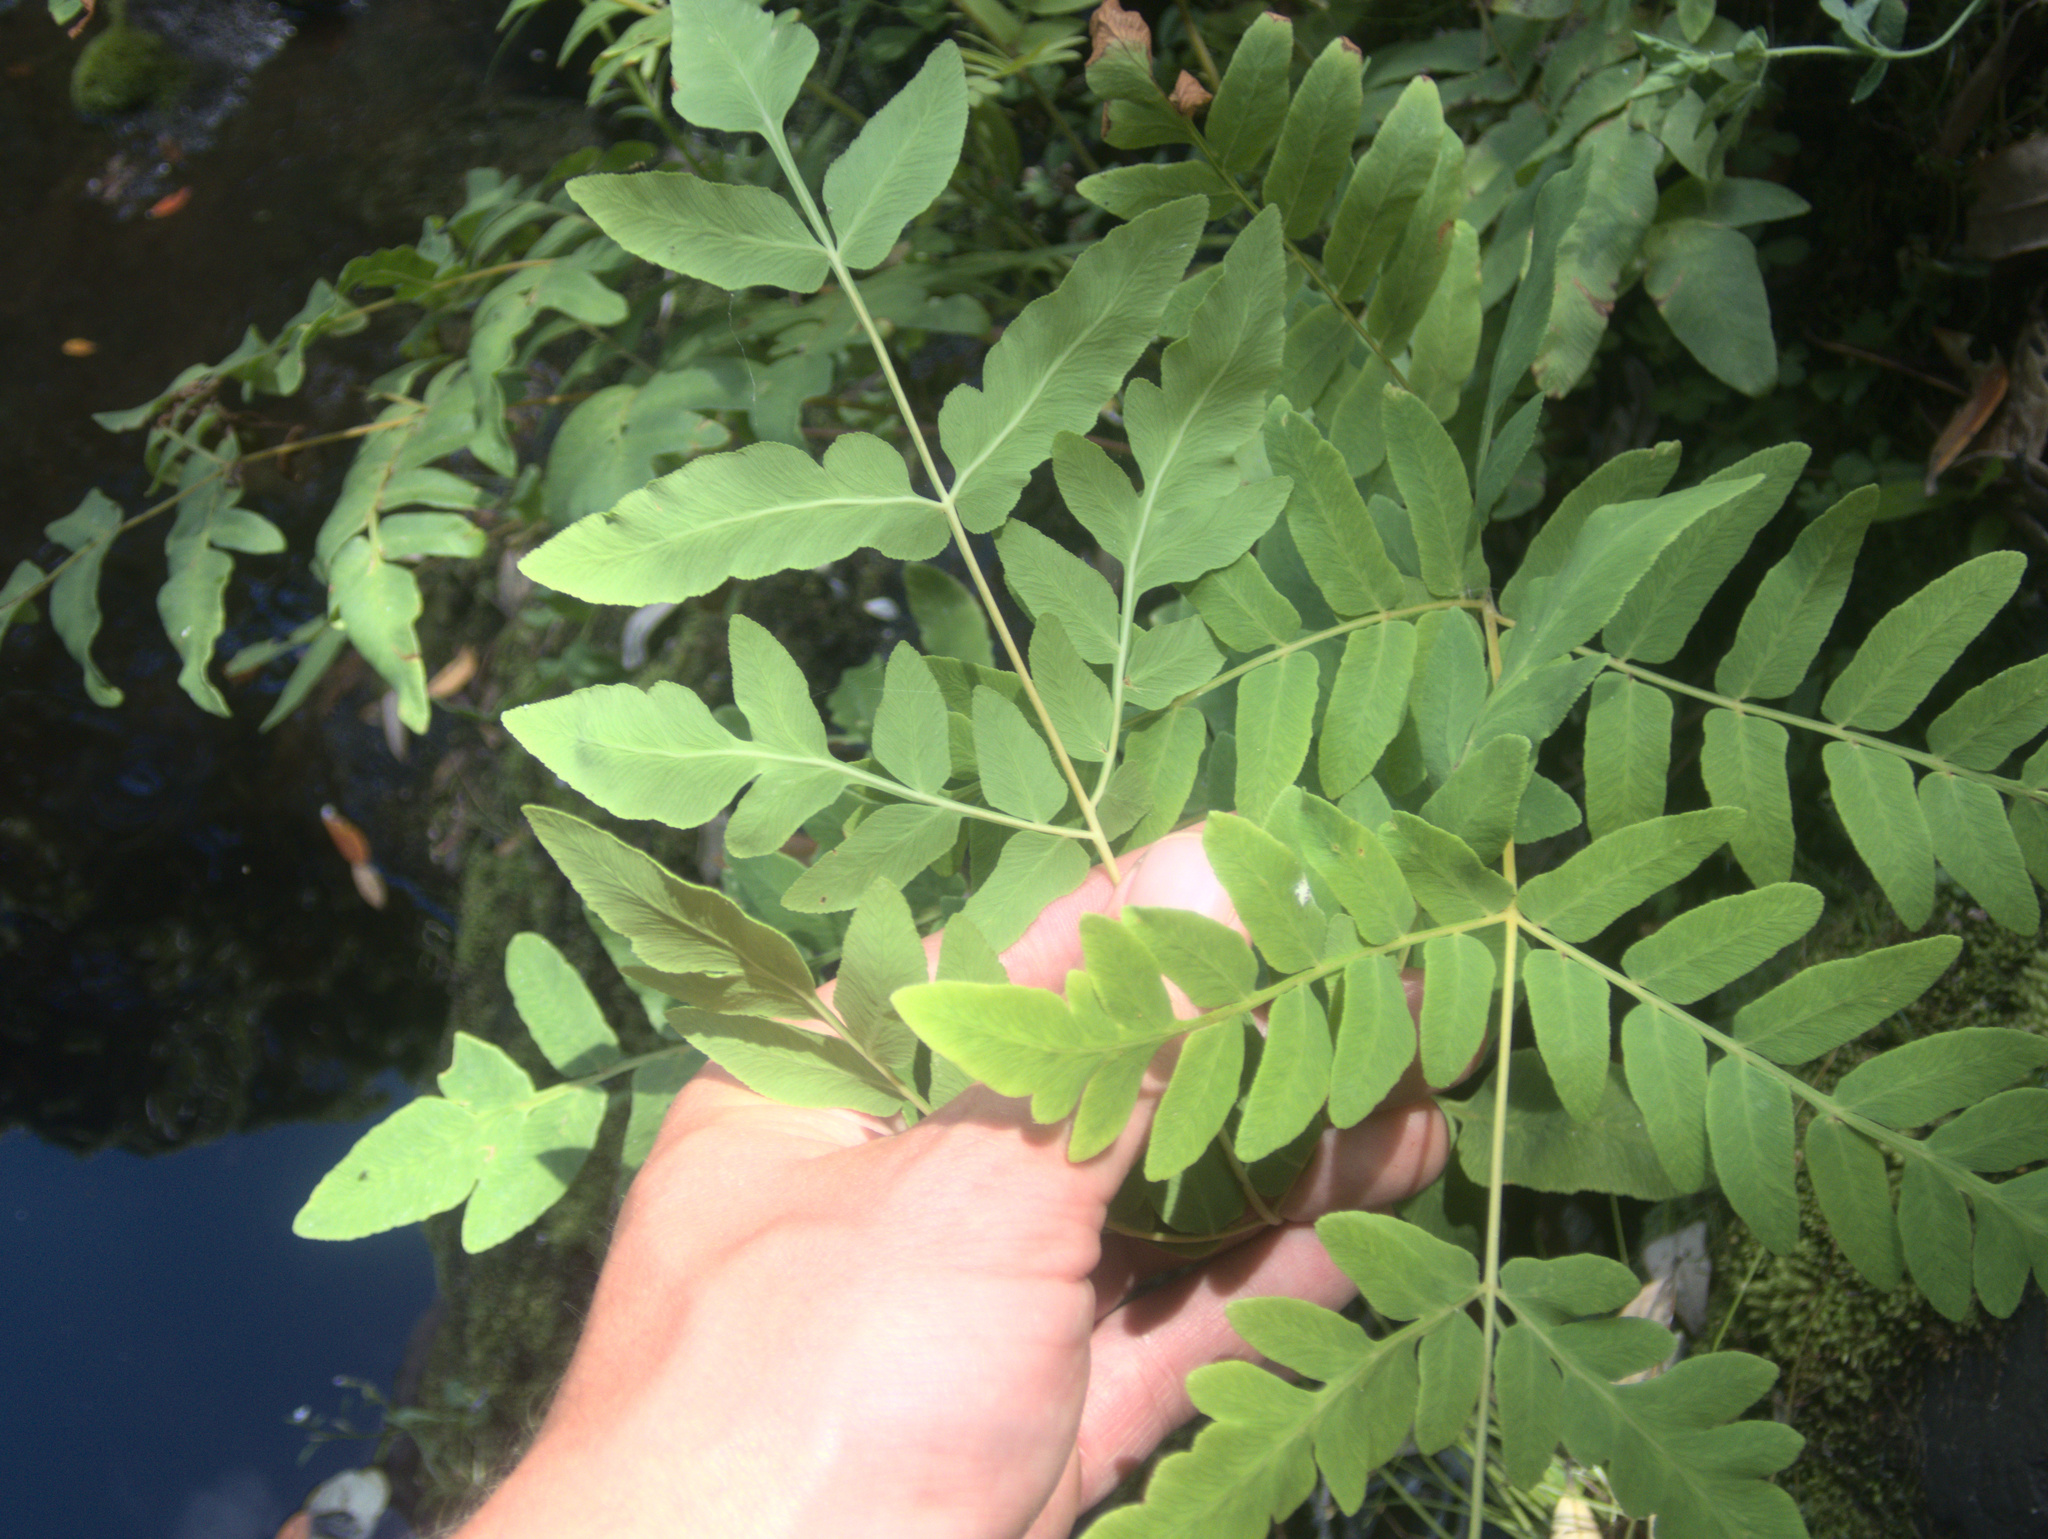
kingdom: Plantae
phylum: Tracheophyta
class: Polypodiopsida
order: Osmundales
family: Osmundaceae
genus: Osmunda
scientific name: Osmunda regalis
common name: Royal fern
